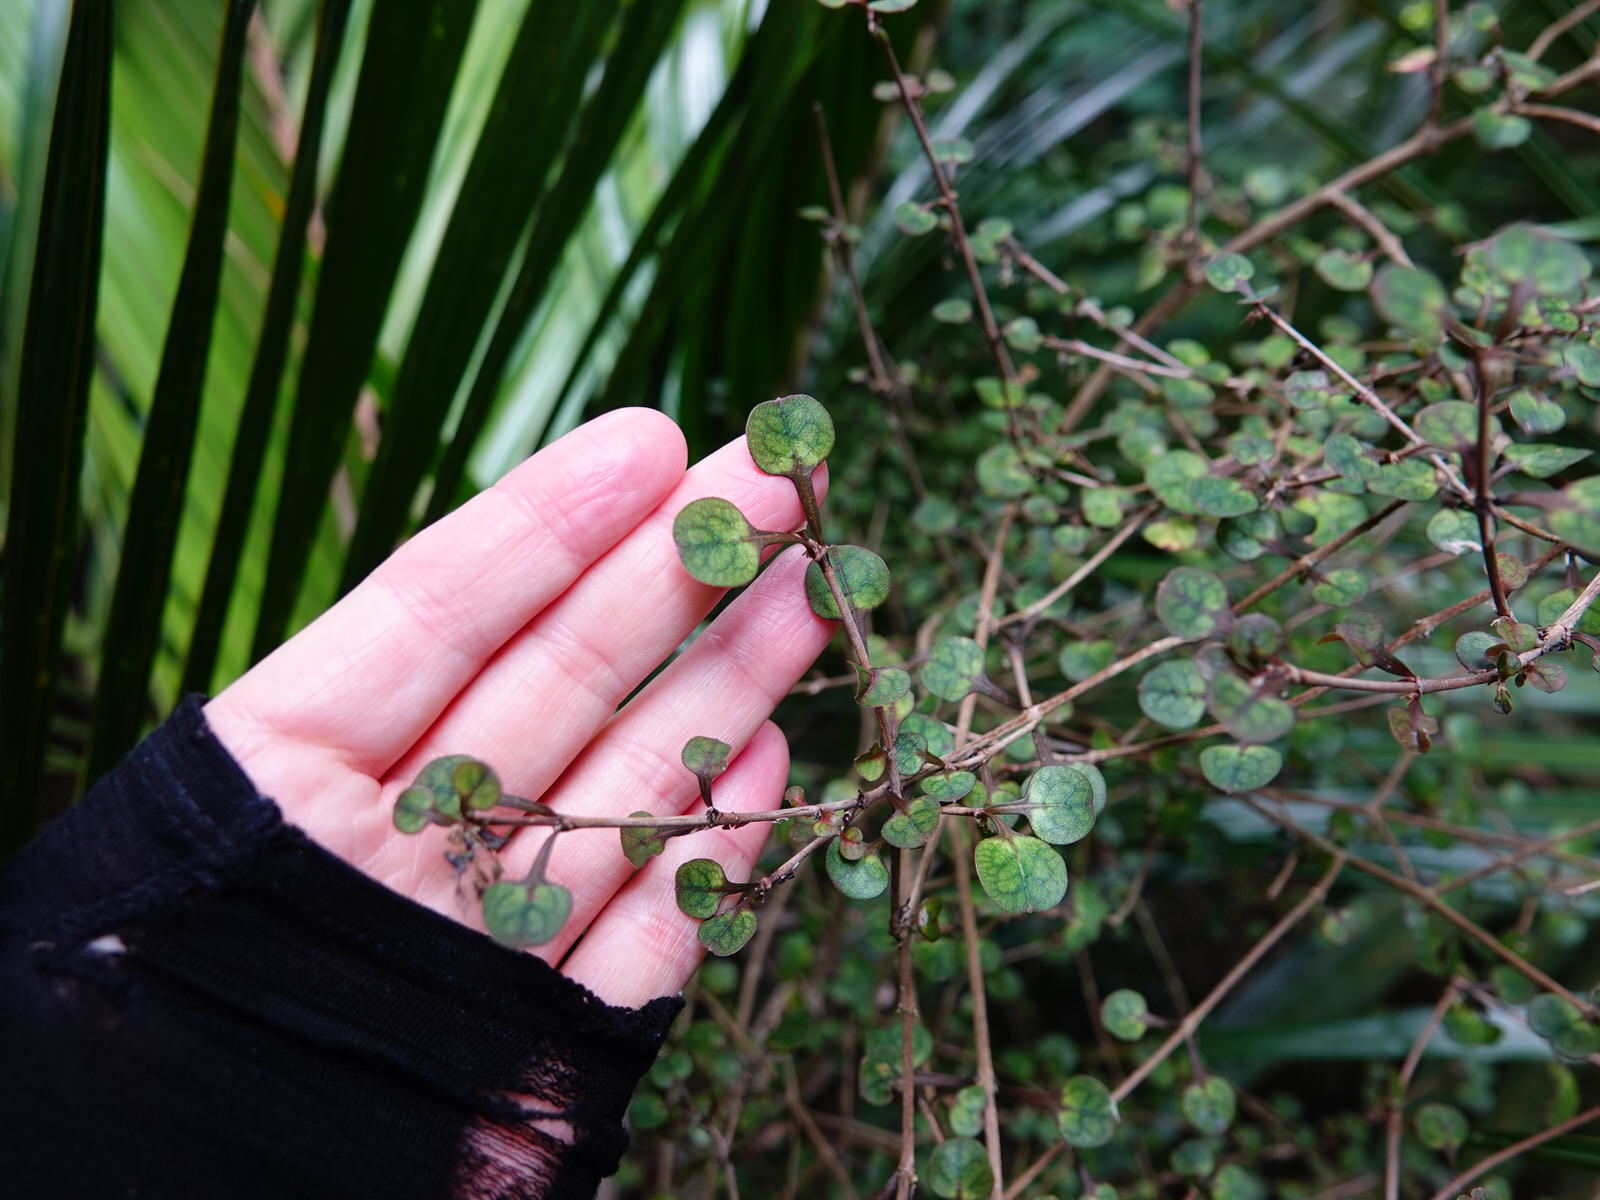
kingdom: Plantae
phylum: Tracheophyta
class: Magnoliopsida
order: Gentianales
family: Rubiaceae
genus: Coprosma
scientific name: Coprosma spathulata
